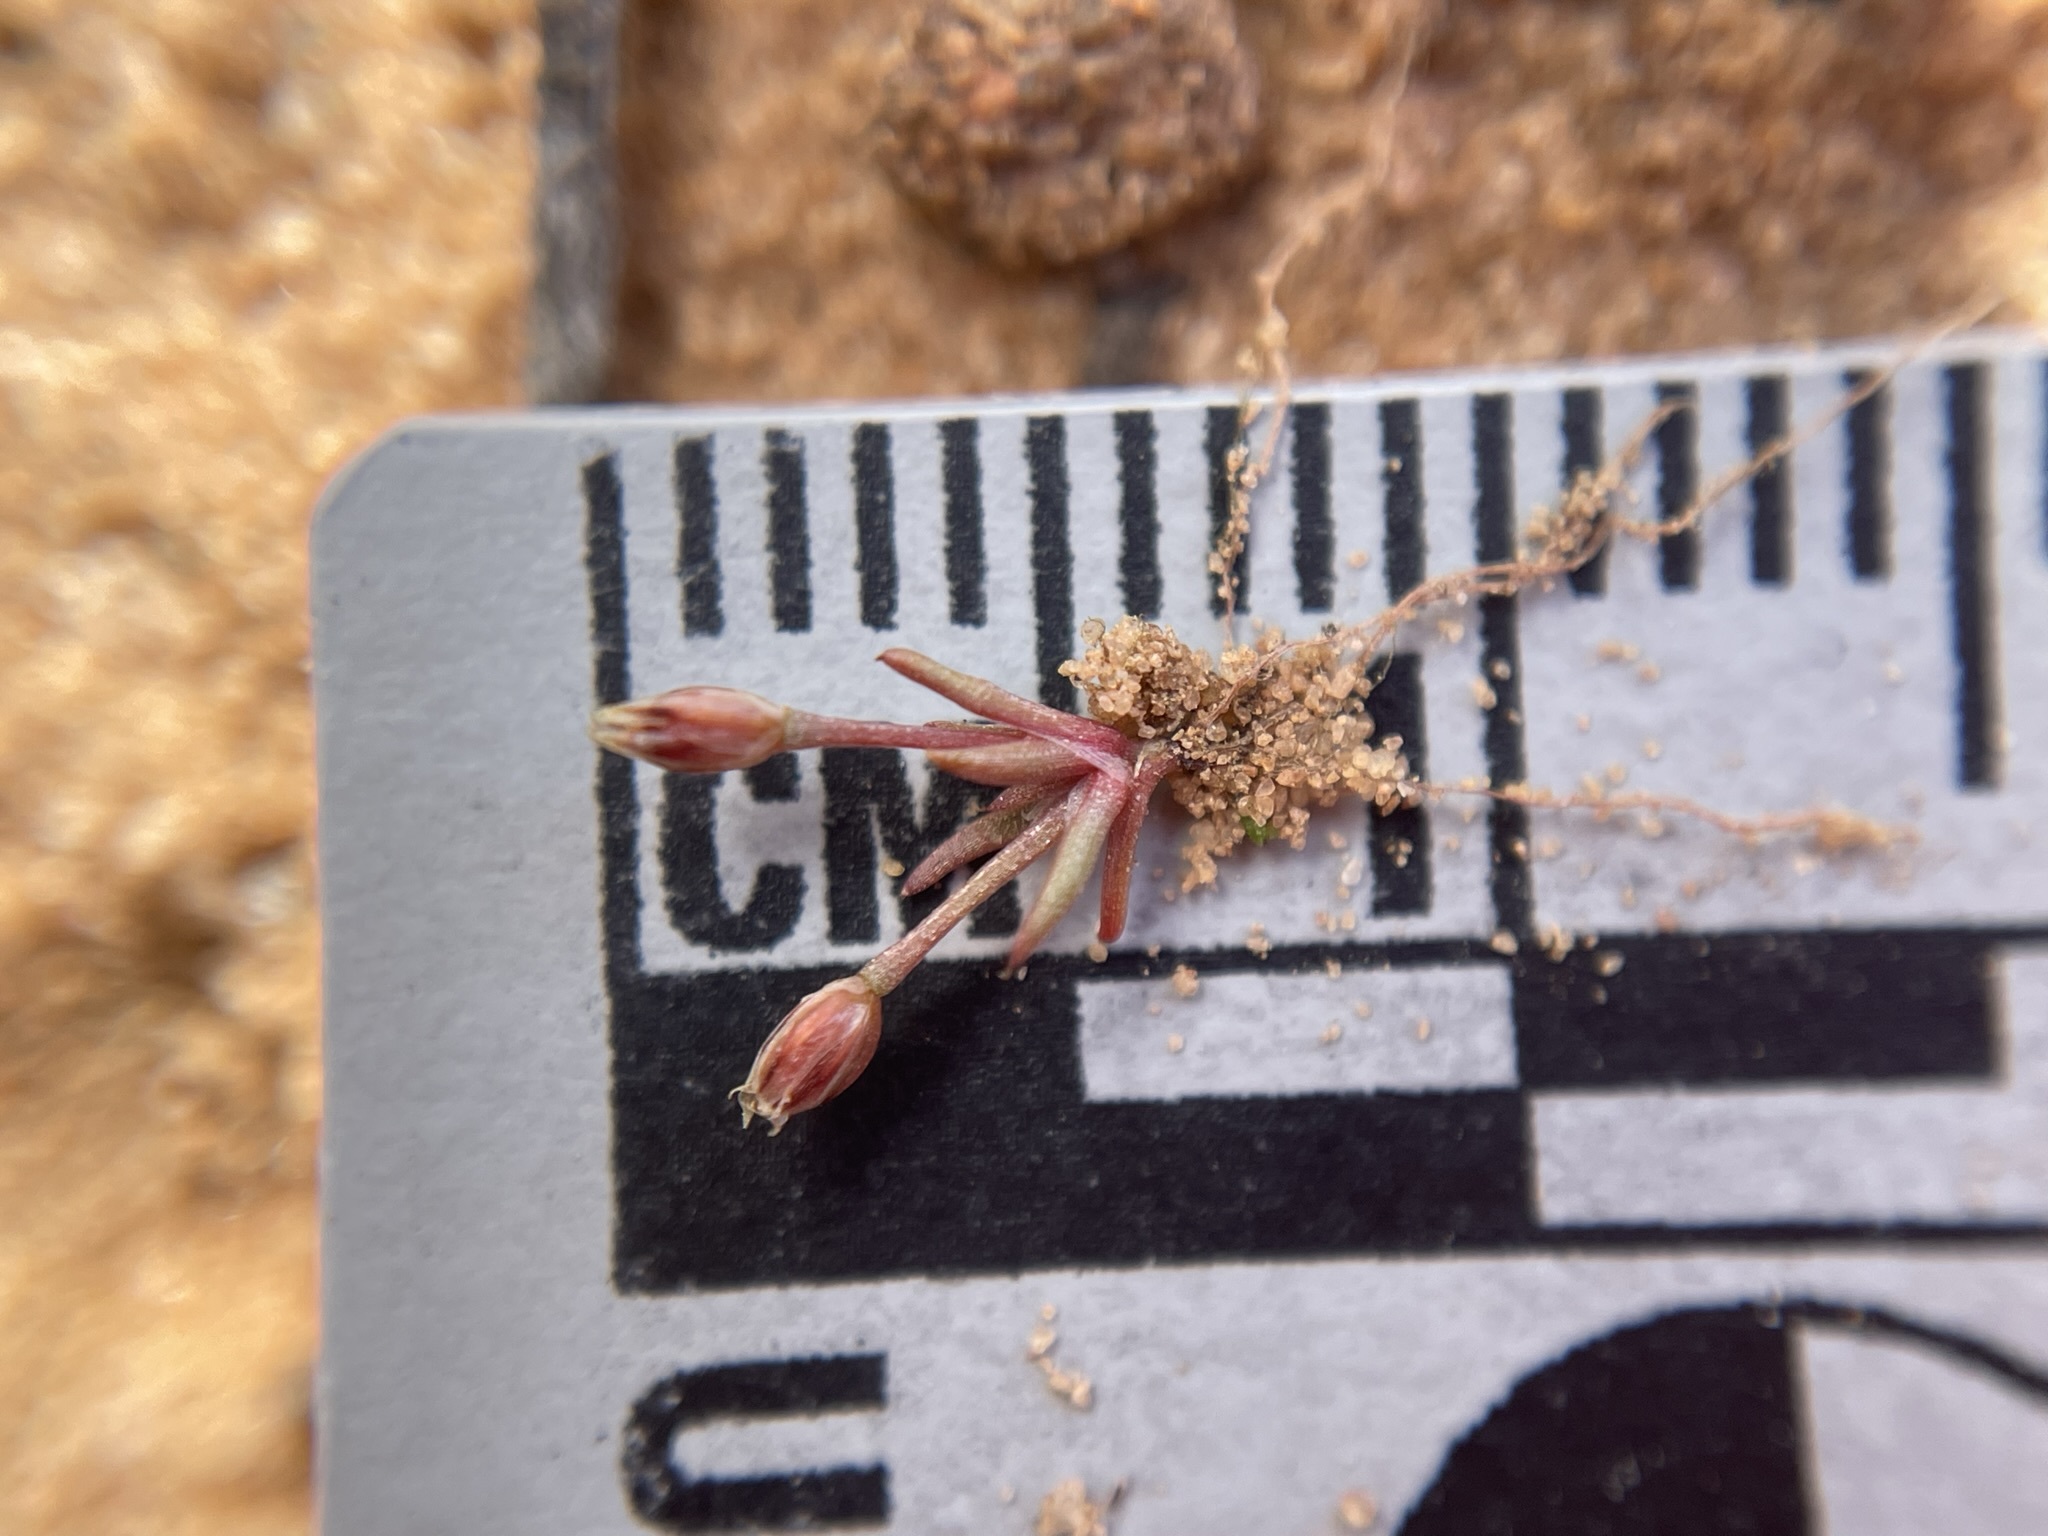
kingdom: Plantae
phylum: Tracheophyta
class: Liliopsida
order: Poales
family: Juncaceae
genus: Juncus
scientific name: Juncus bryoides
